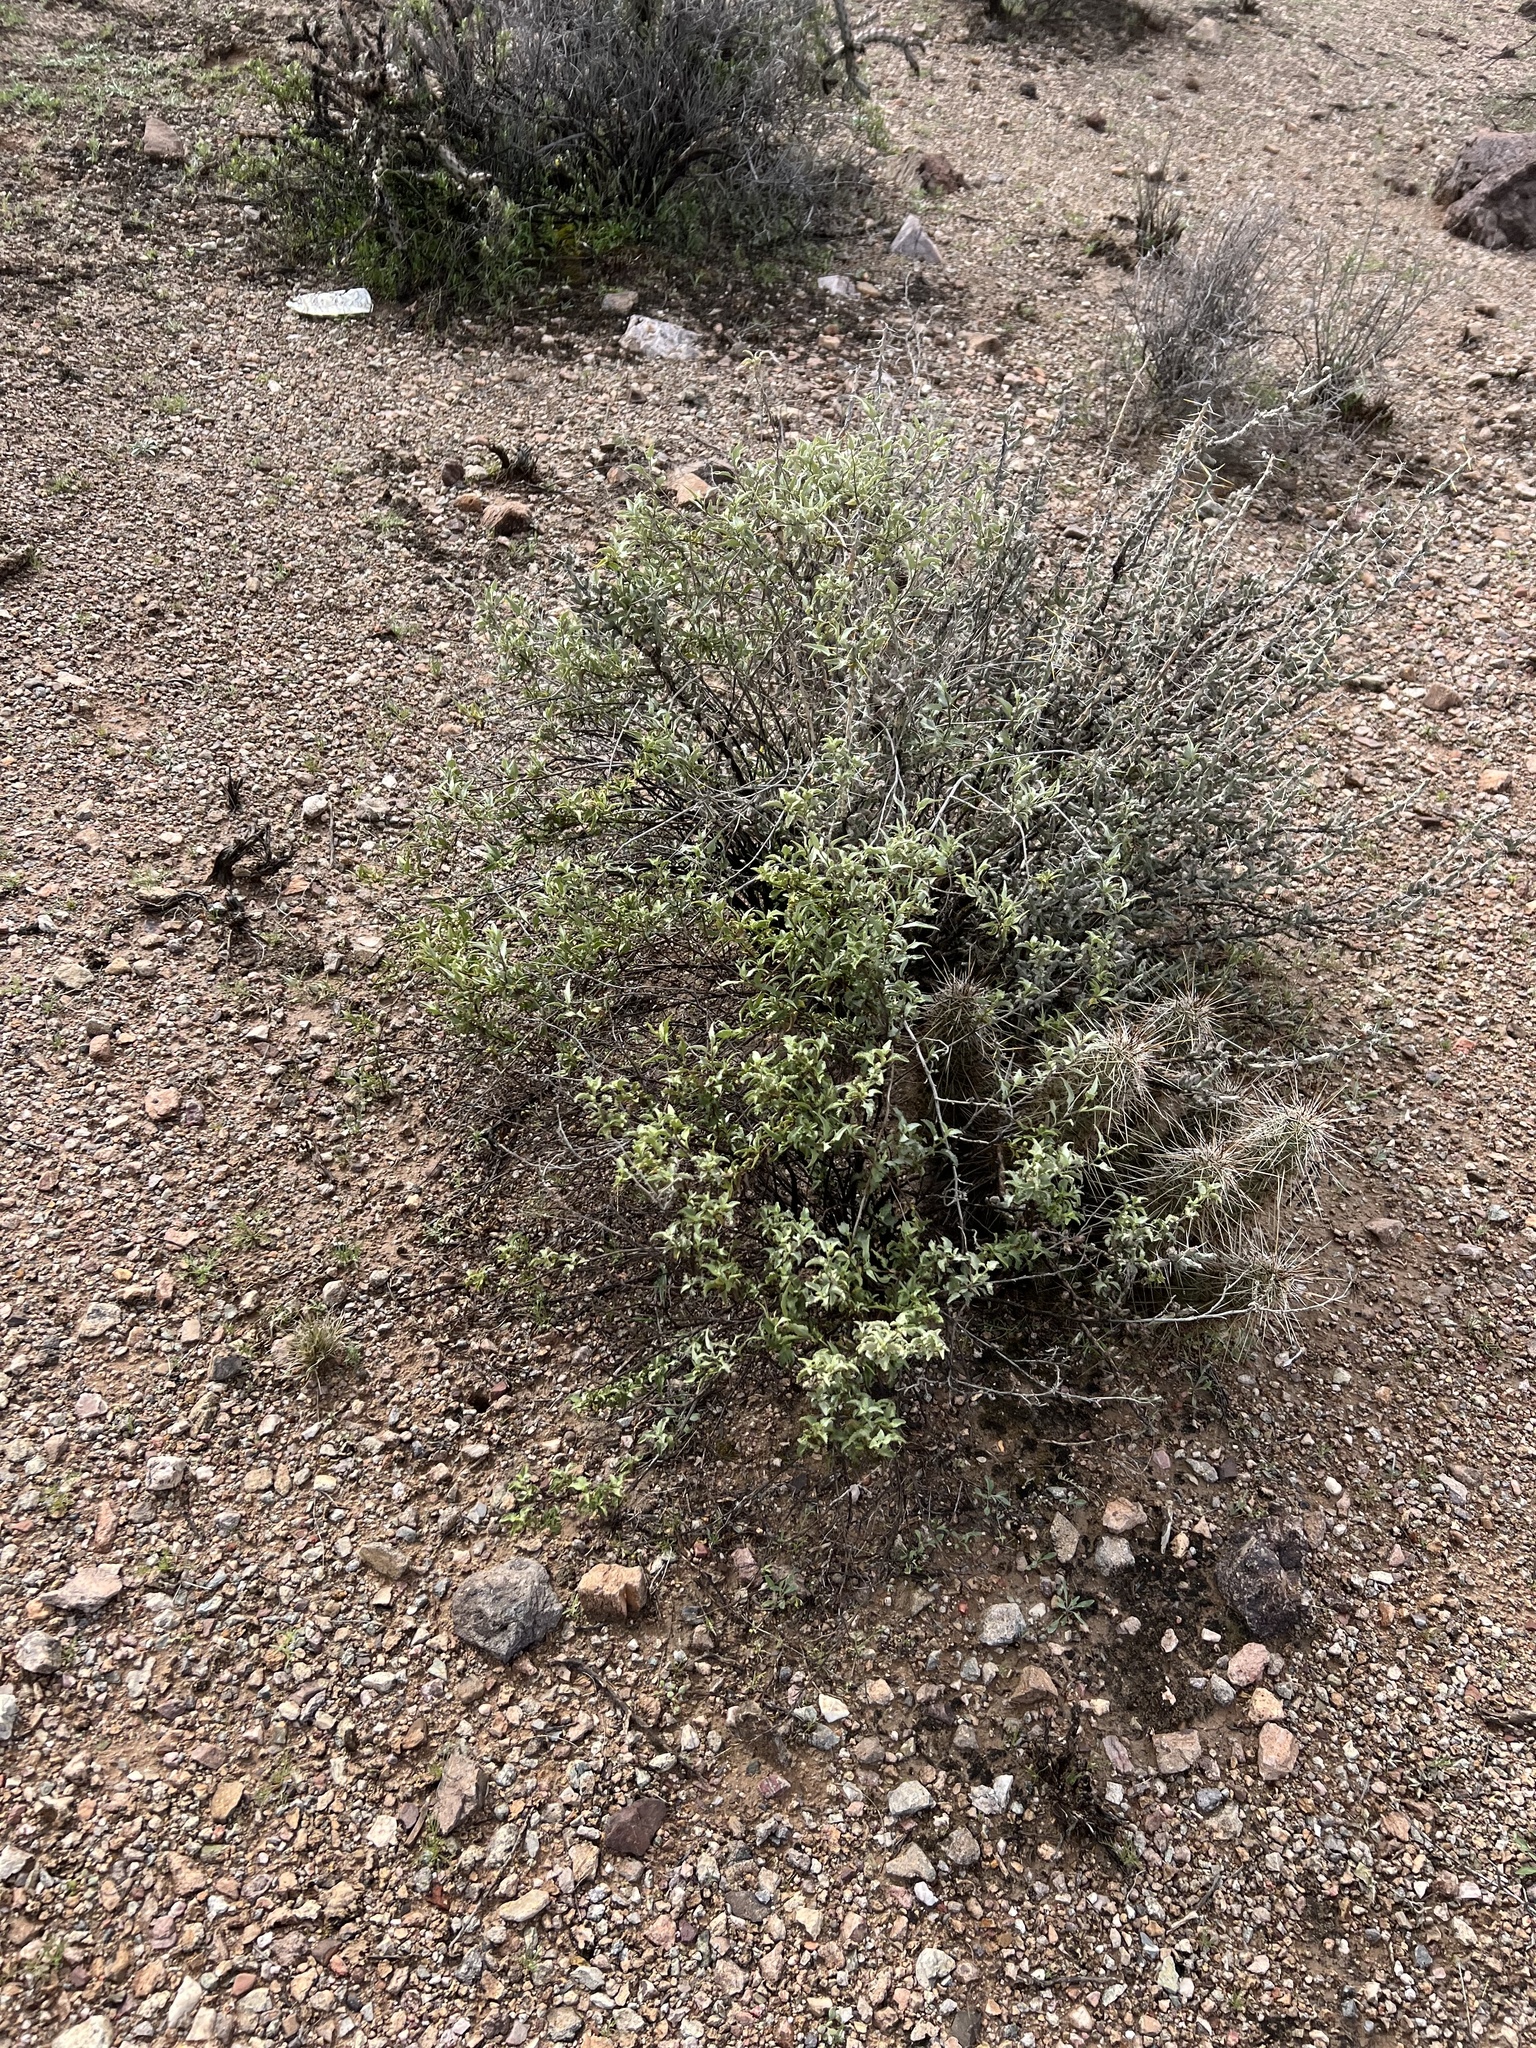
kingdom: Plantae
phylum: Tracheophyta
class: Magnoliopsida
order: Asterales
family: Asteraceae
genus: Ambrosia
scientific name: Ambrosia deltoidea
